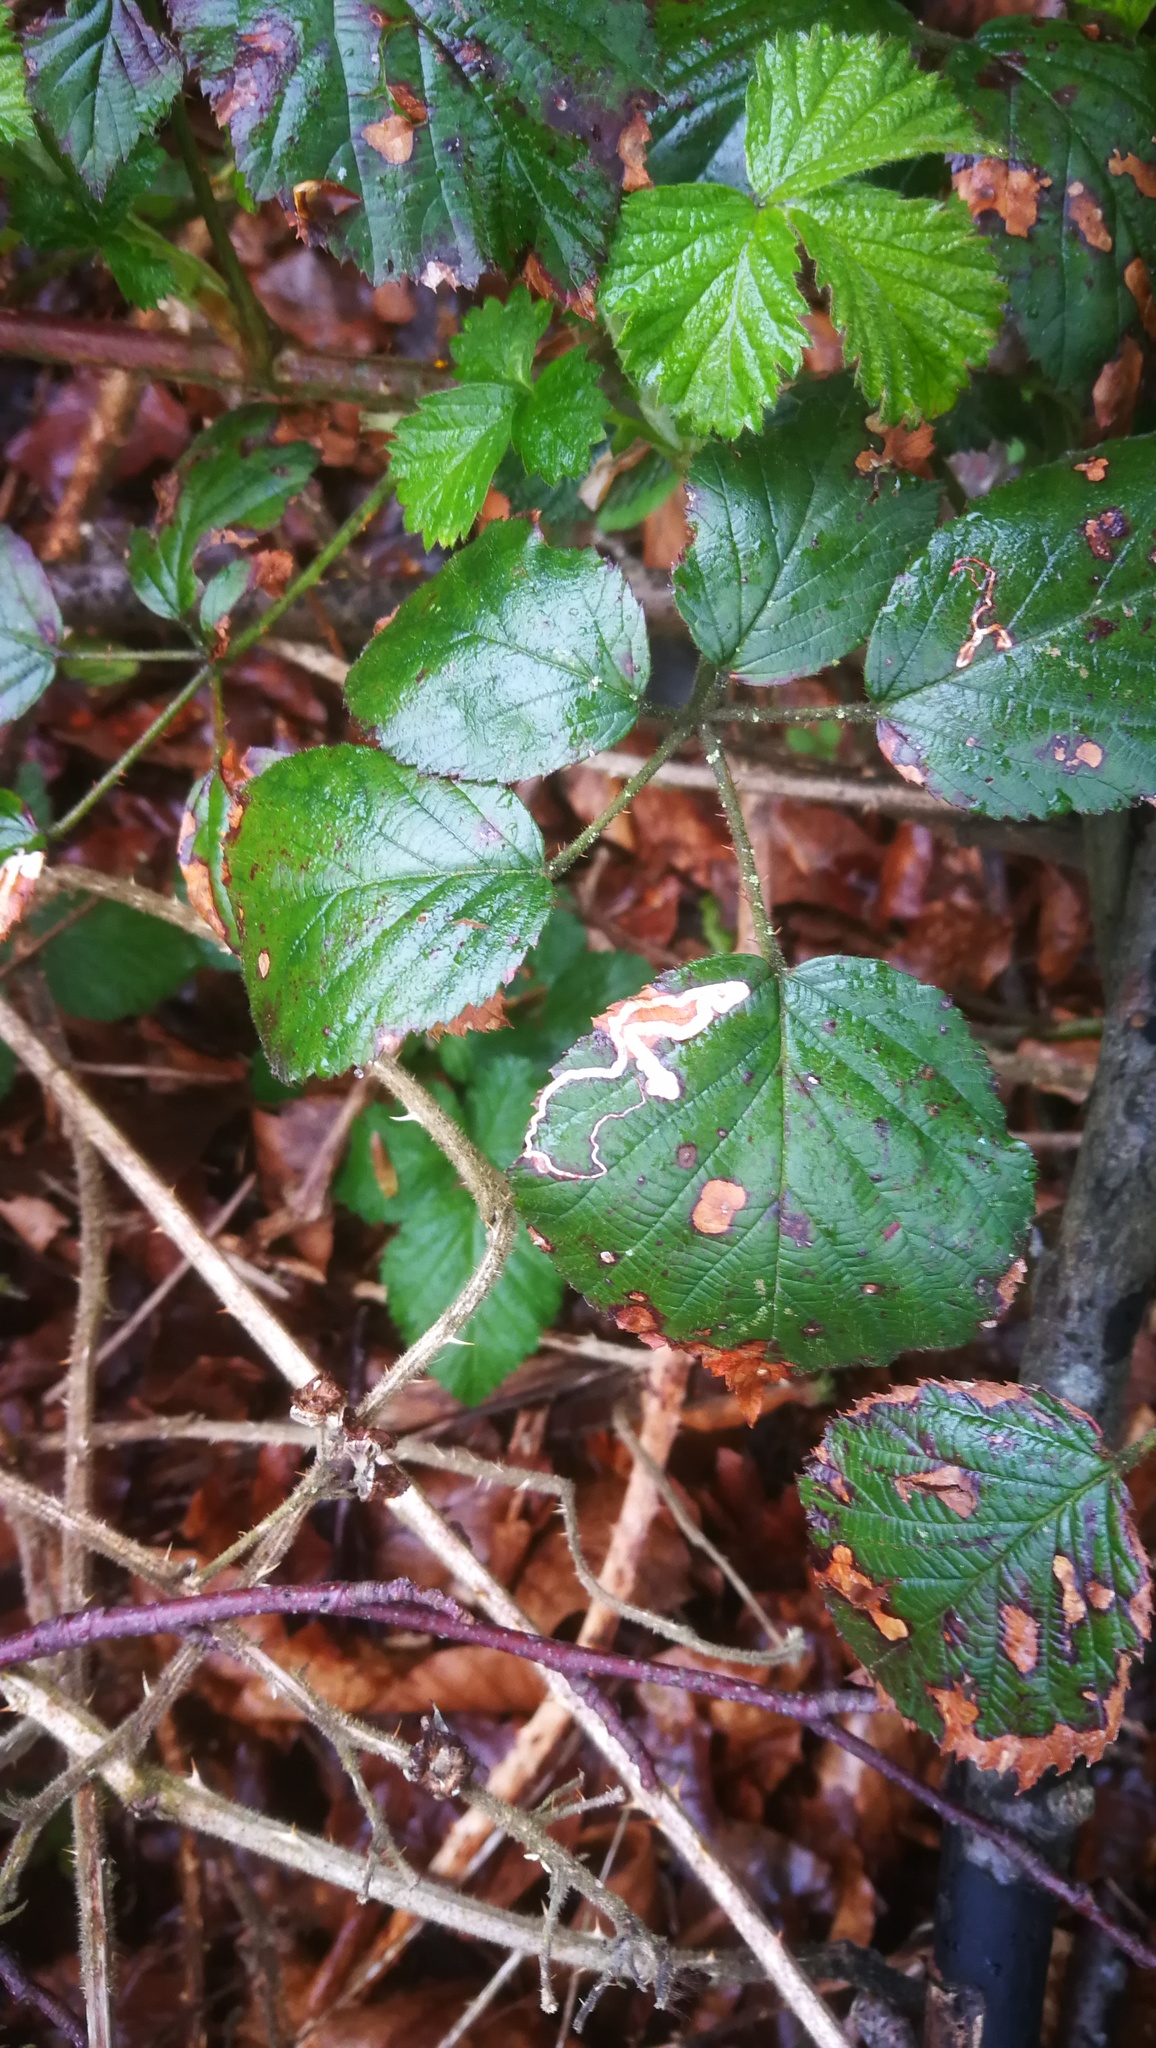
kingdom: Animalia
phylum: Arthropoda
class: Insecta
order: Lepidoptera
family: Nepticulidae
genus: Stigmella
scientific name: Stigmella aurella
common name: Golden pigmy
